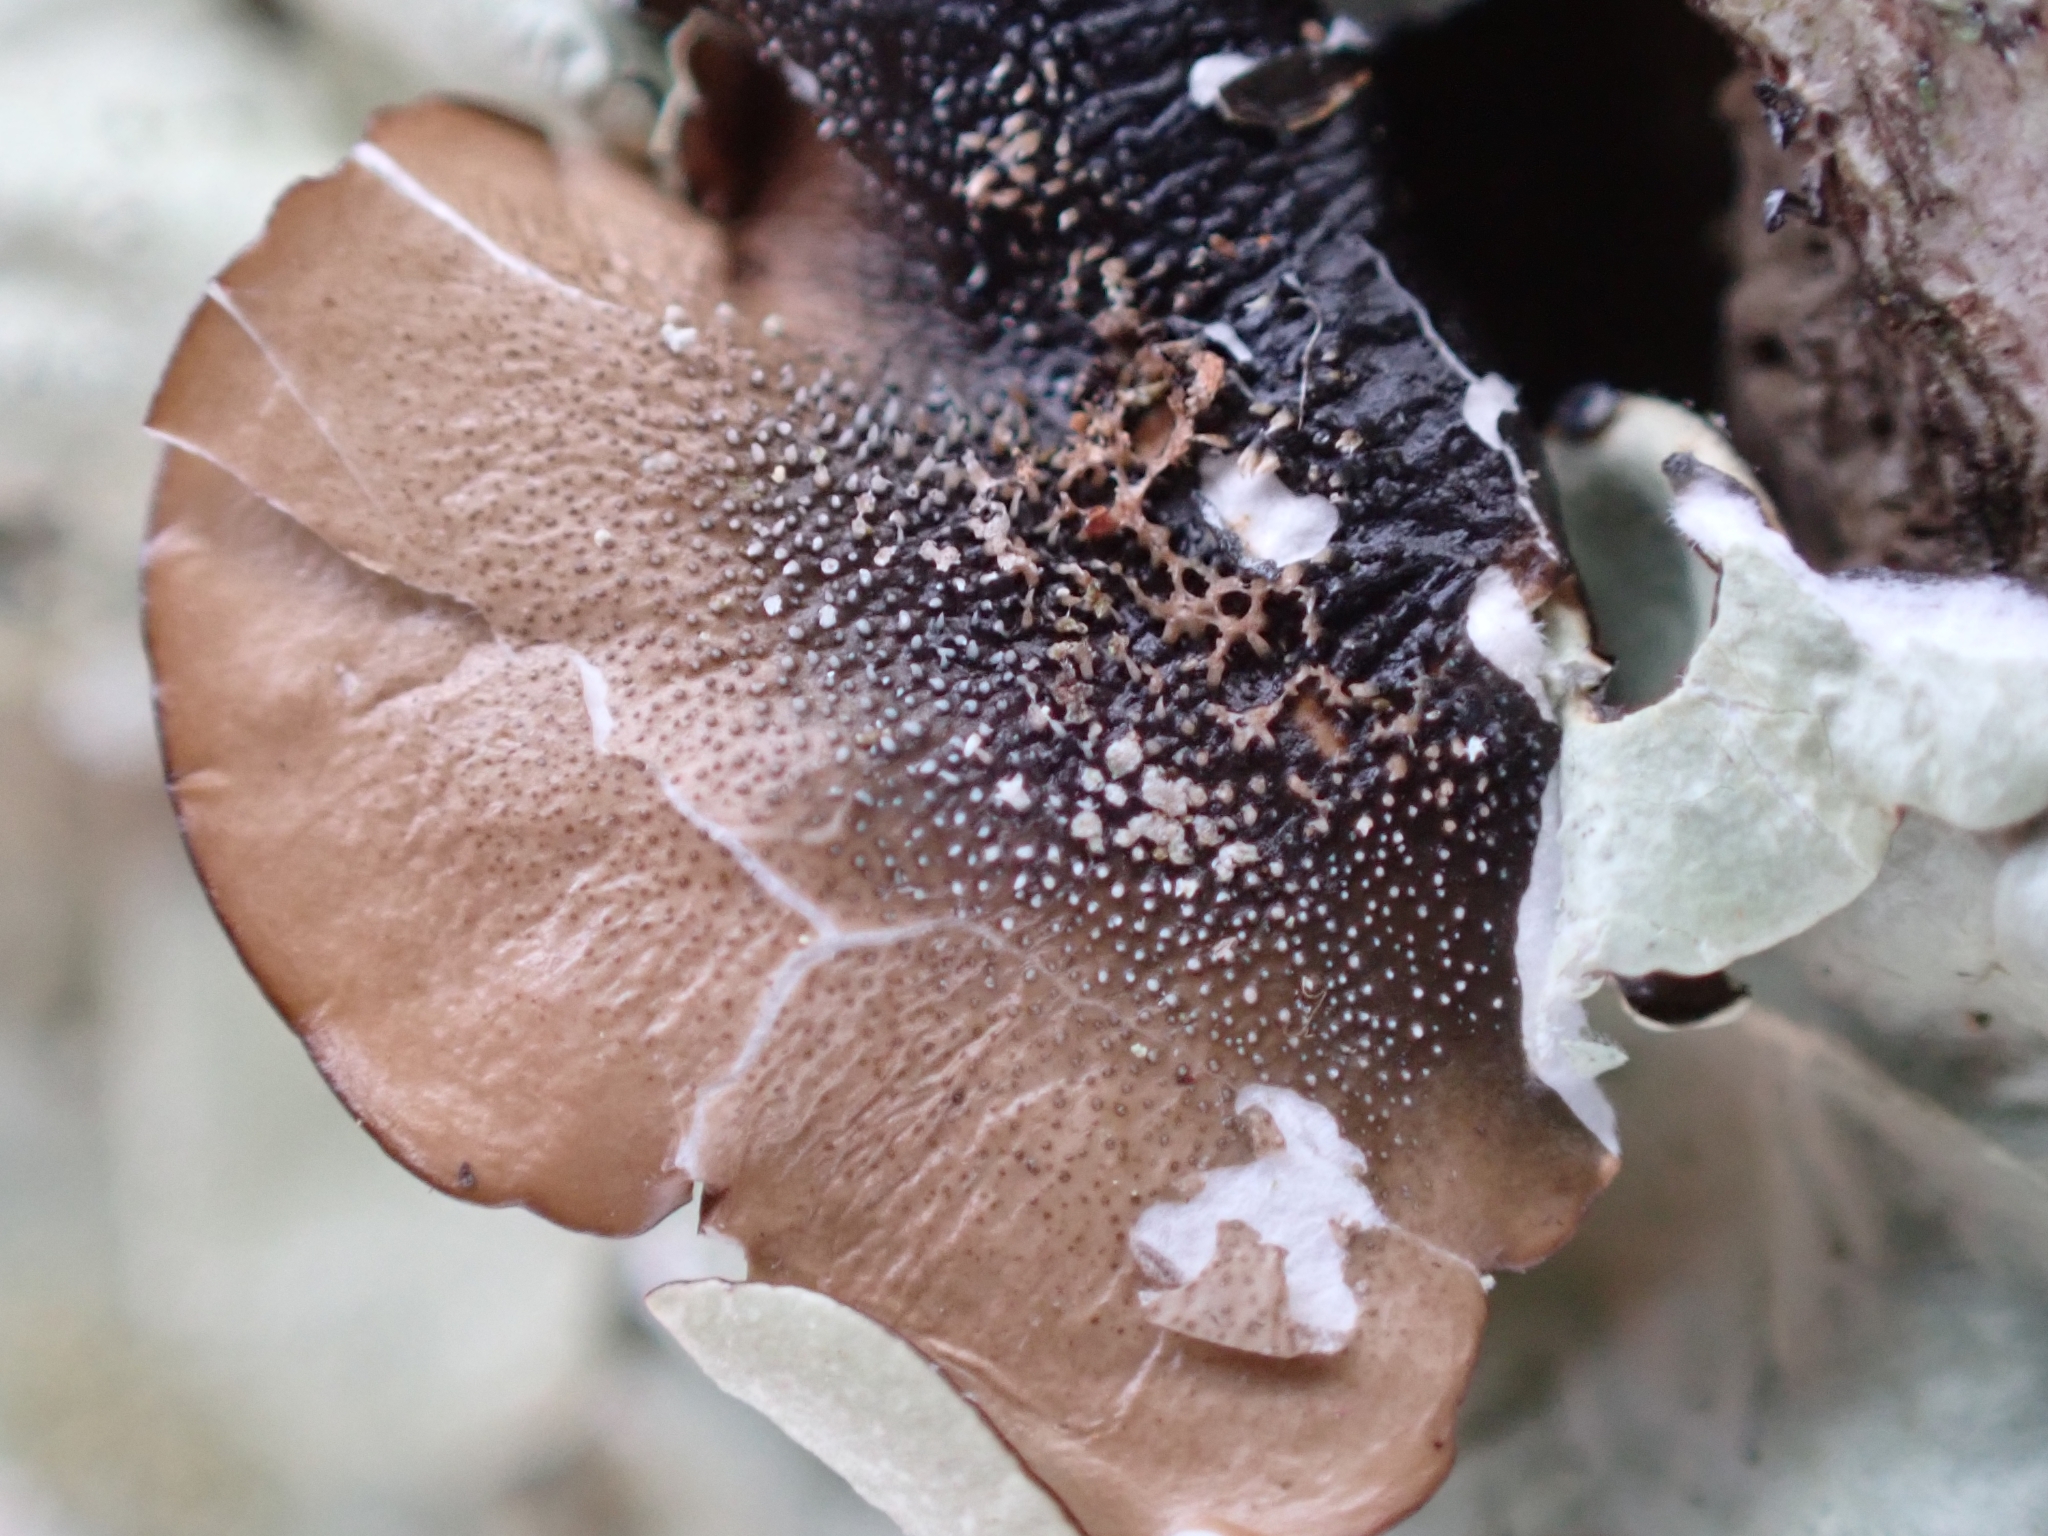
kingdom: Fungi
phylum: Ascomycota
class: Lecanoromycetes
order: Lecanorales
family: Parmeliaceae
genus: Flavoparmelia
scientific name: Flavoparmelia caperata
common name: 40-mile per hour lichen
